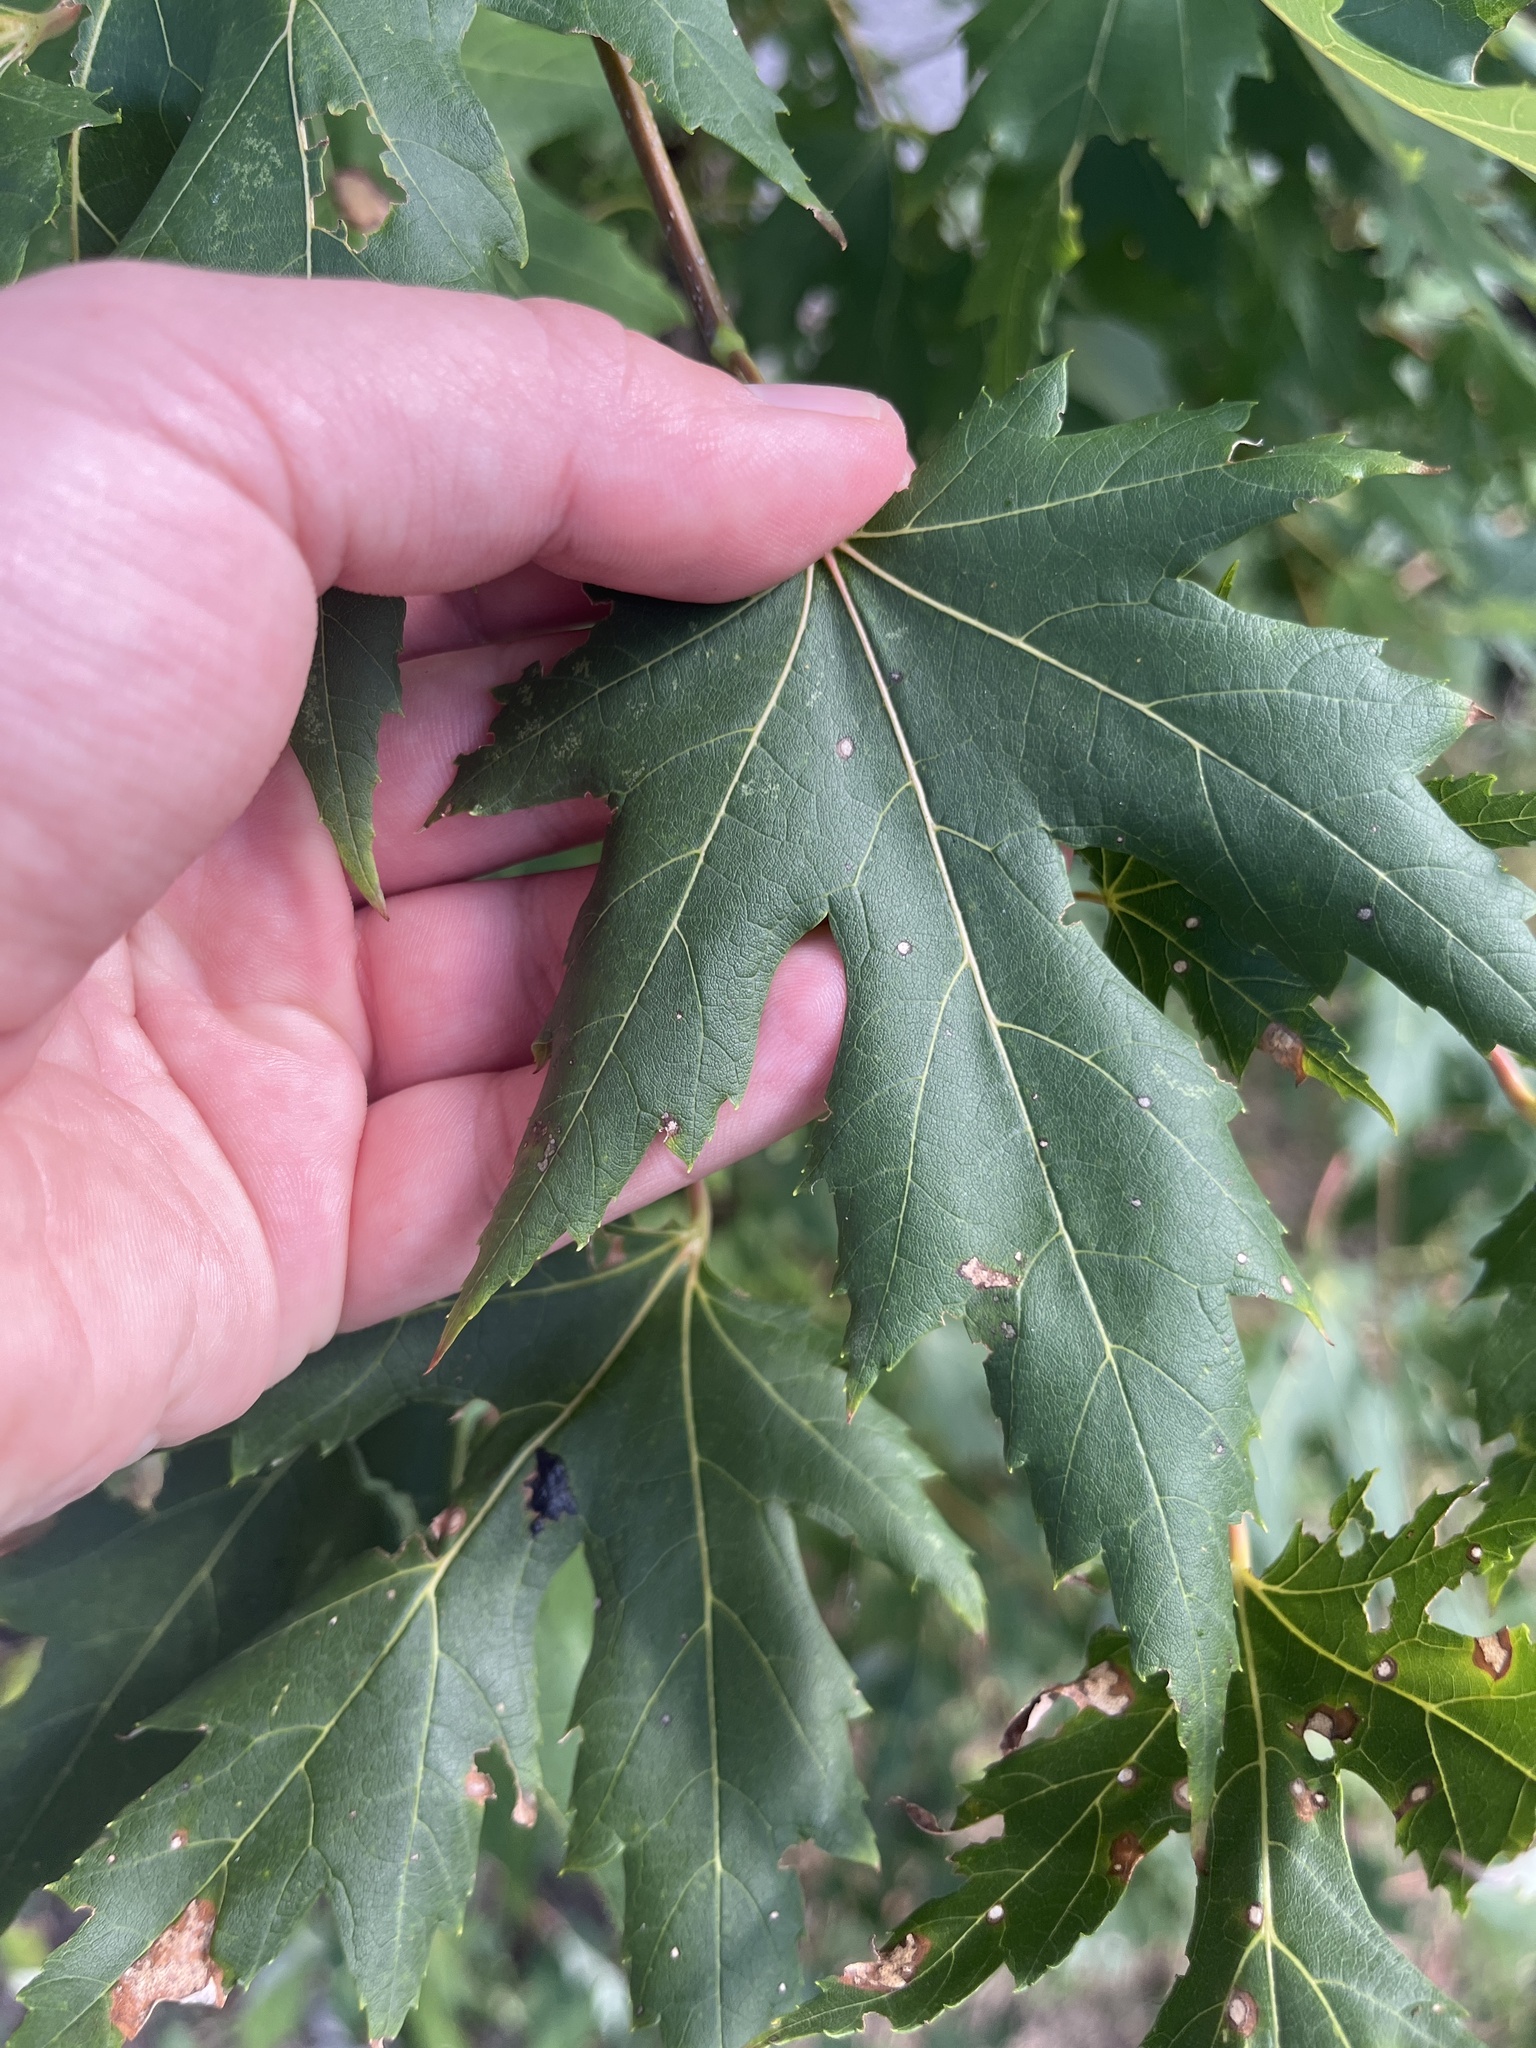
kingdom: Plantae
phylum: Tracheophyta
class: Magnoliopsida
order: Sapindales
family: Sapindaceae
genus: Acer
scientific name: Acer saccharinum
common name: Silver maple
